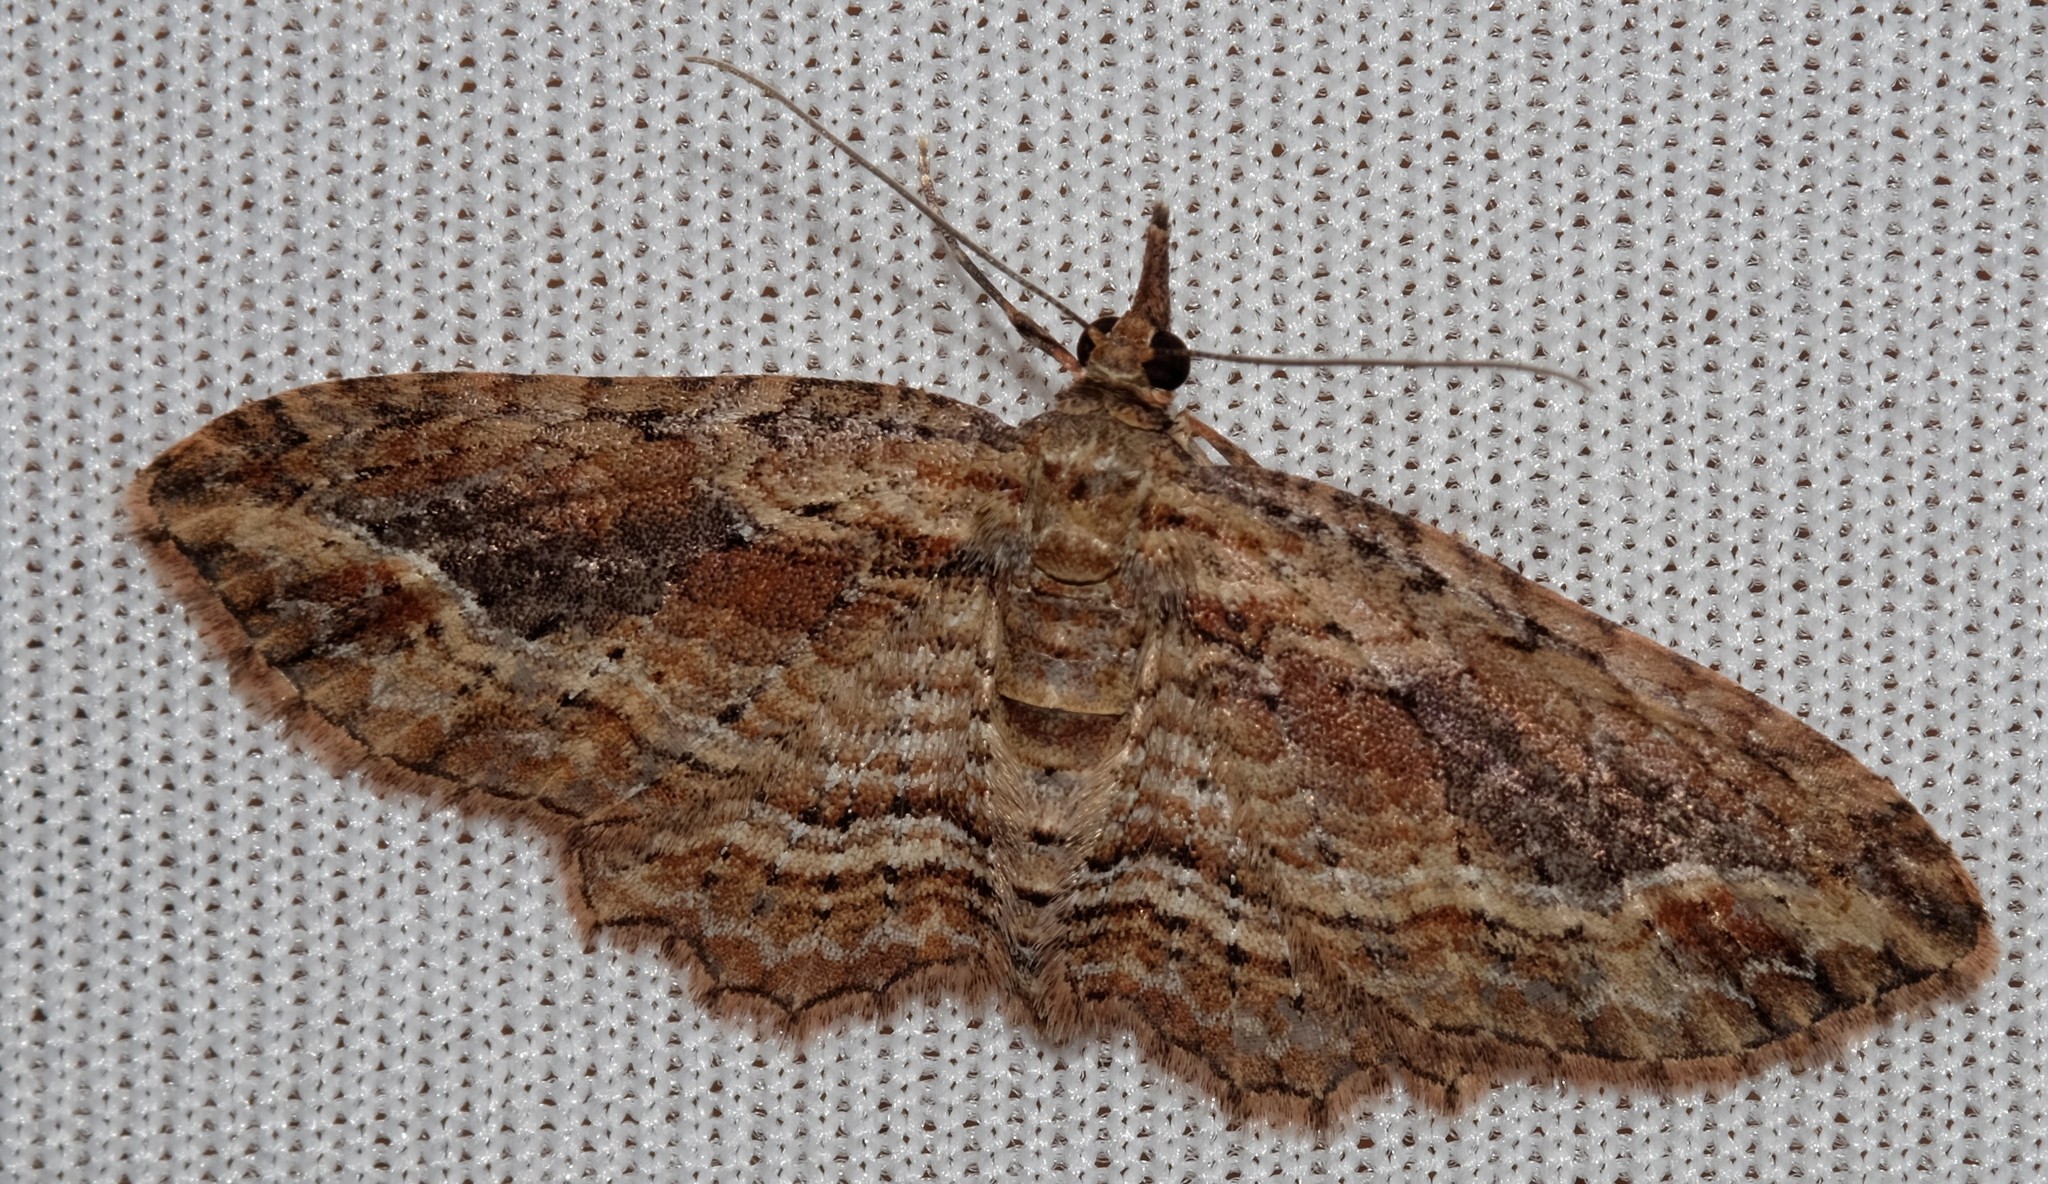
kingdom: Animalia
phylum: Arthropoda
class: Insecta
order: Lepidoptera
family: Geometridae
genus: Chloroclystis
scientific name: Chloroclystis filata
